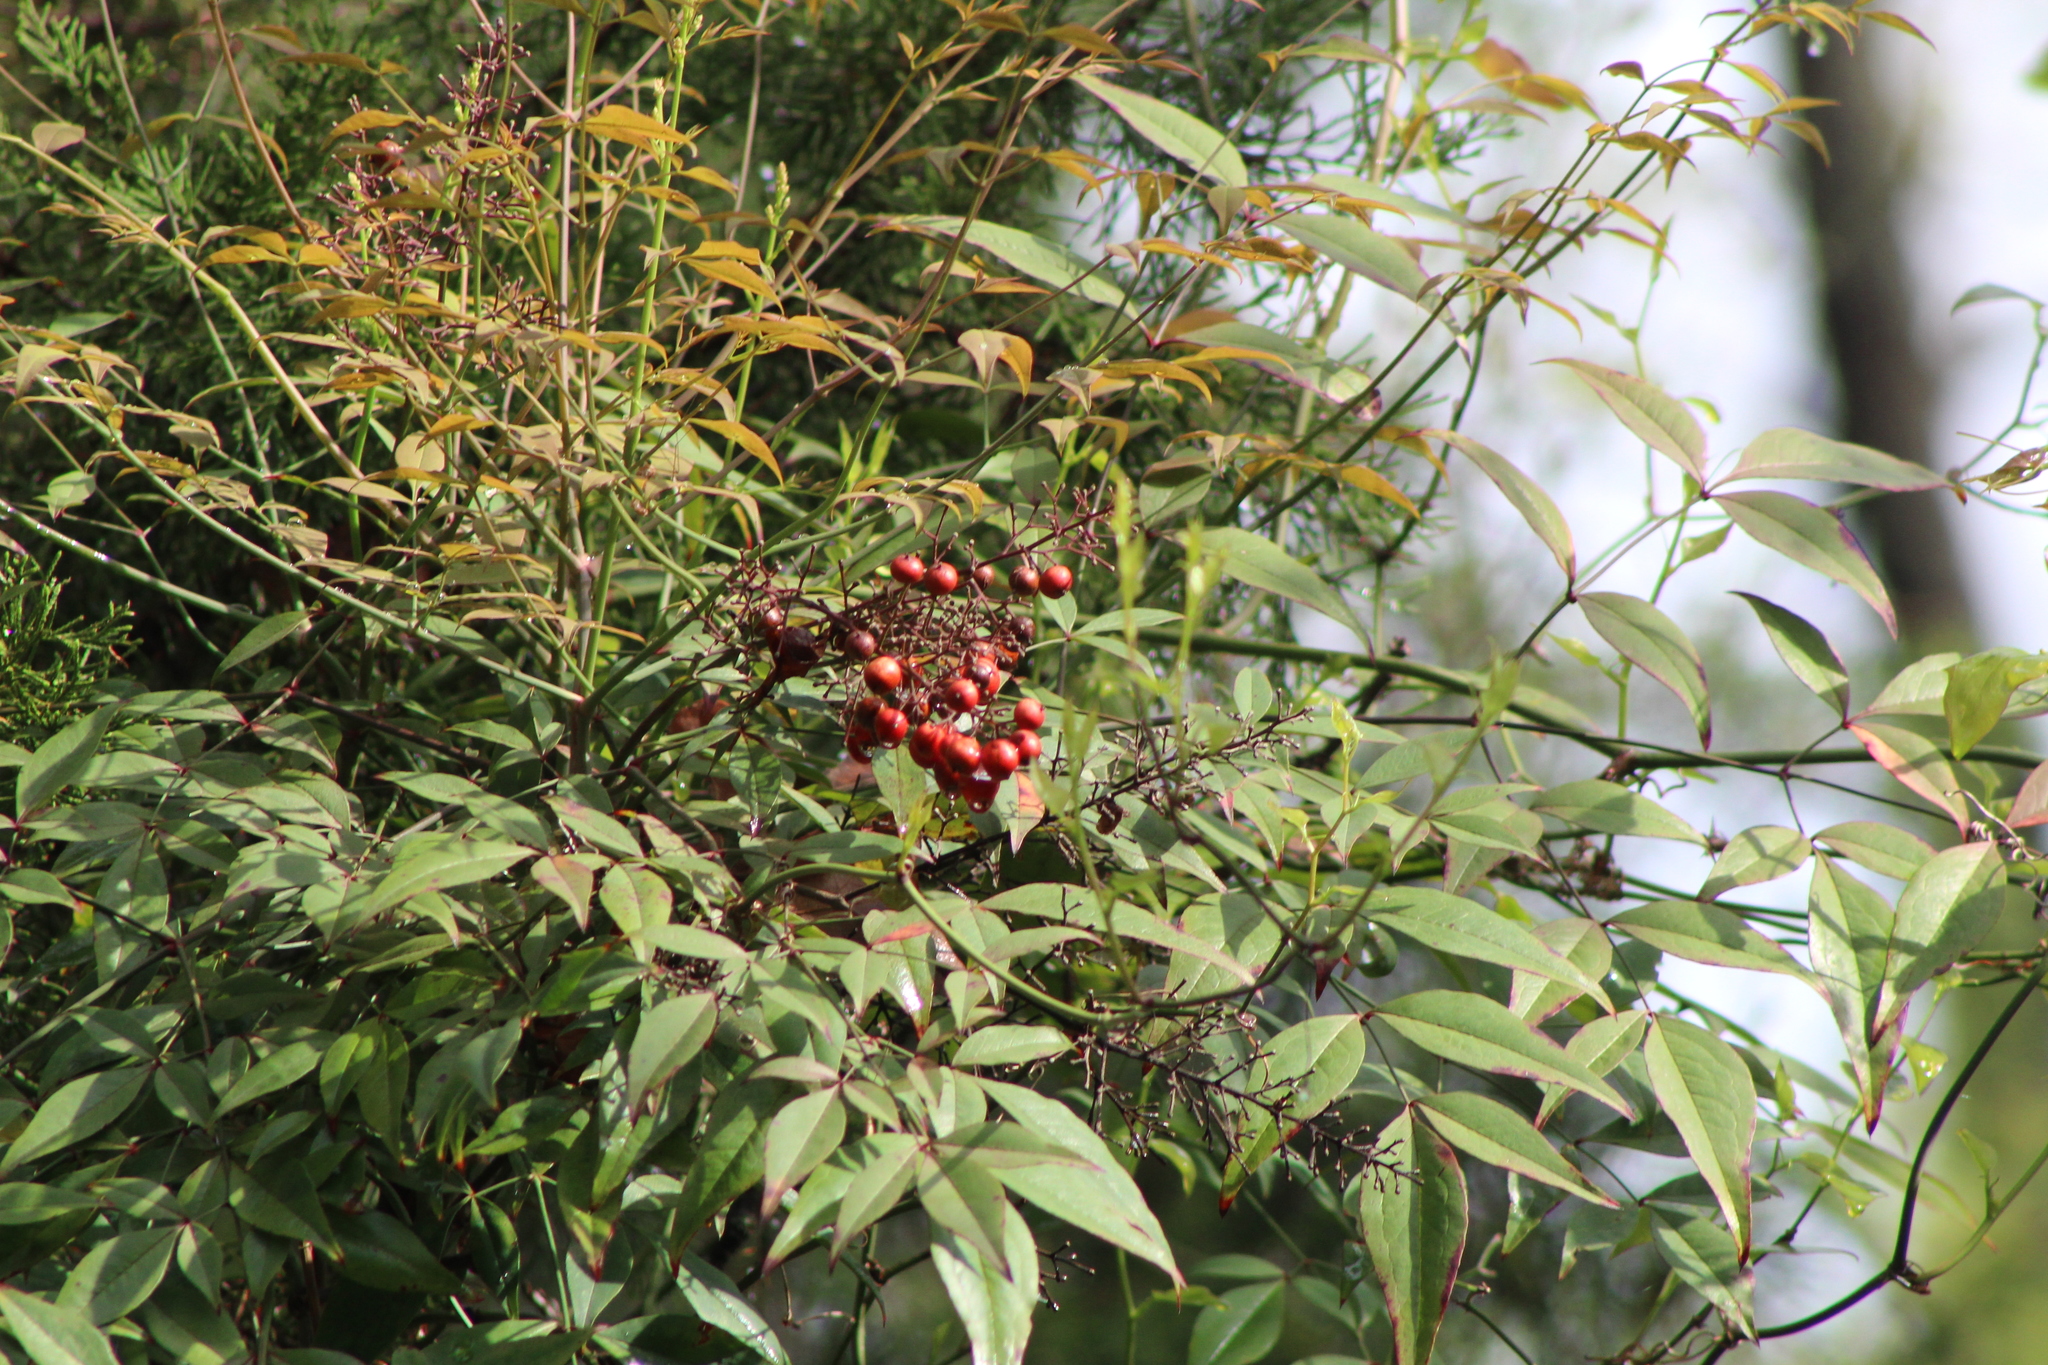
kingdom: Plantae
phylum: Tracheophyta
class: Magnoliopsida
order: Ranunculales
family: Berberidaceae
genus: Nandina
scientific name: Nandina domestica
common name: Sacred bamboo
